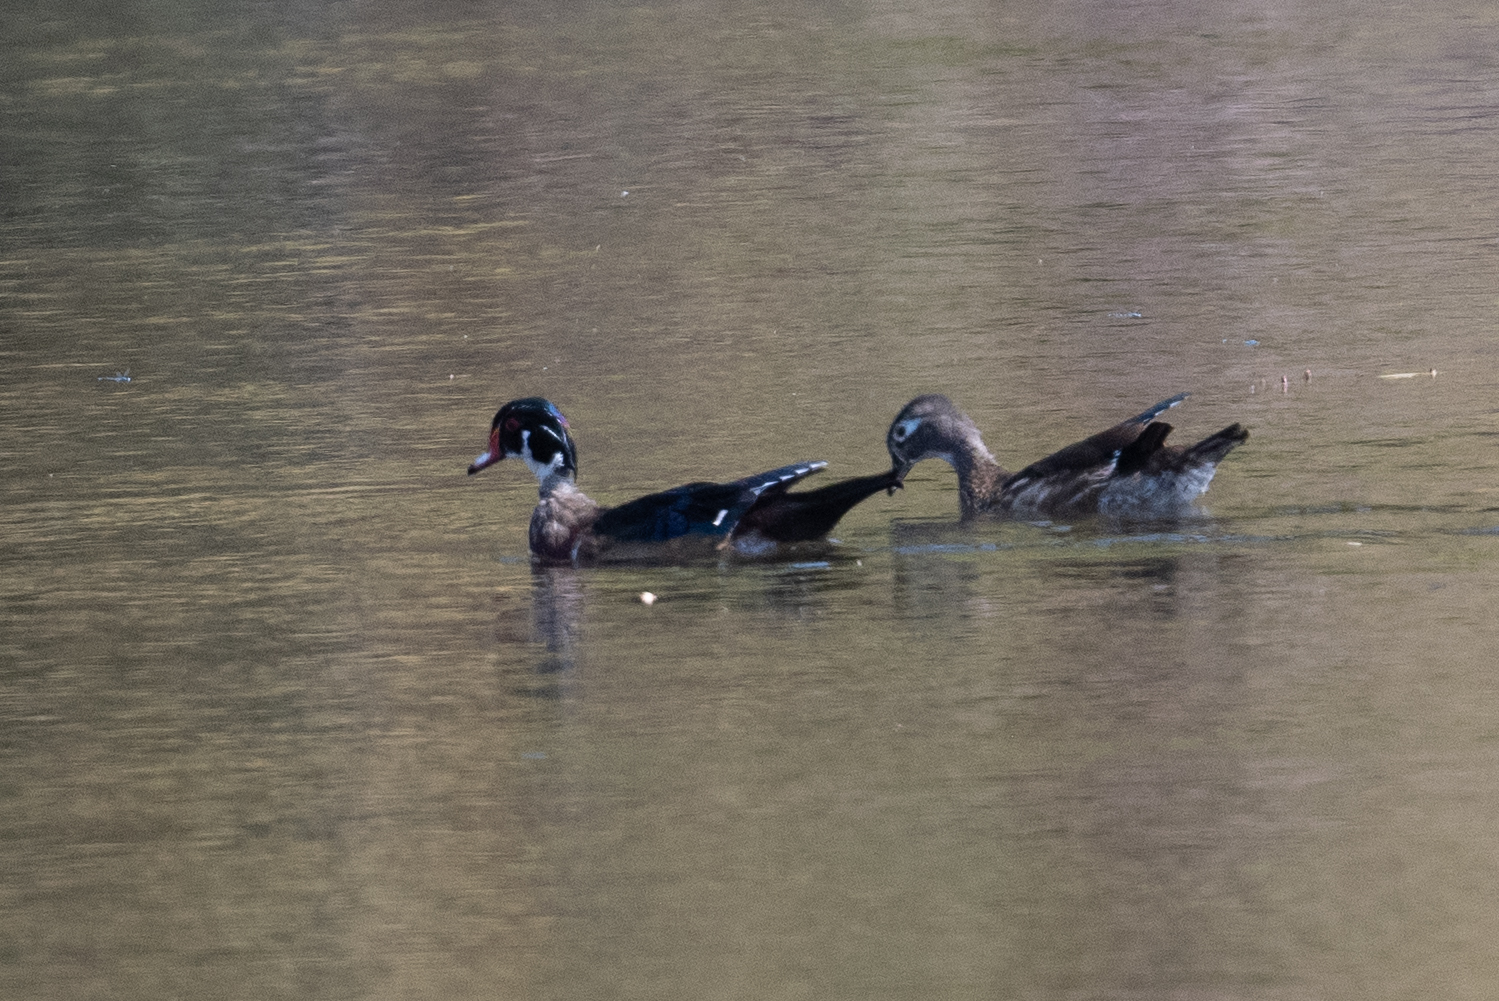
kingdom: Animalia
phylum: Chordata
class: Aves
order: Anseriformes
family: Anatidae
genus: Aix
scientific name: Aix sponsa
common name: Wood duck
